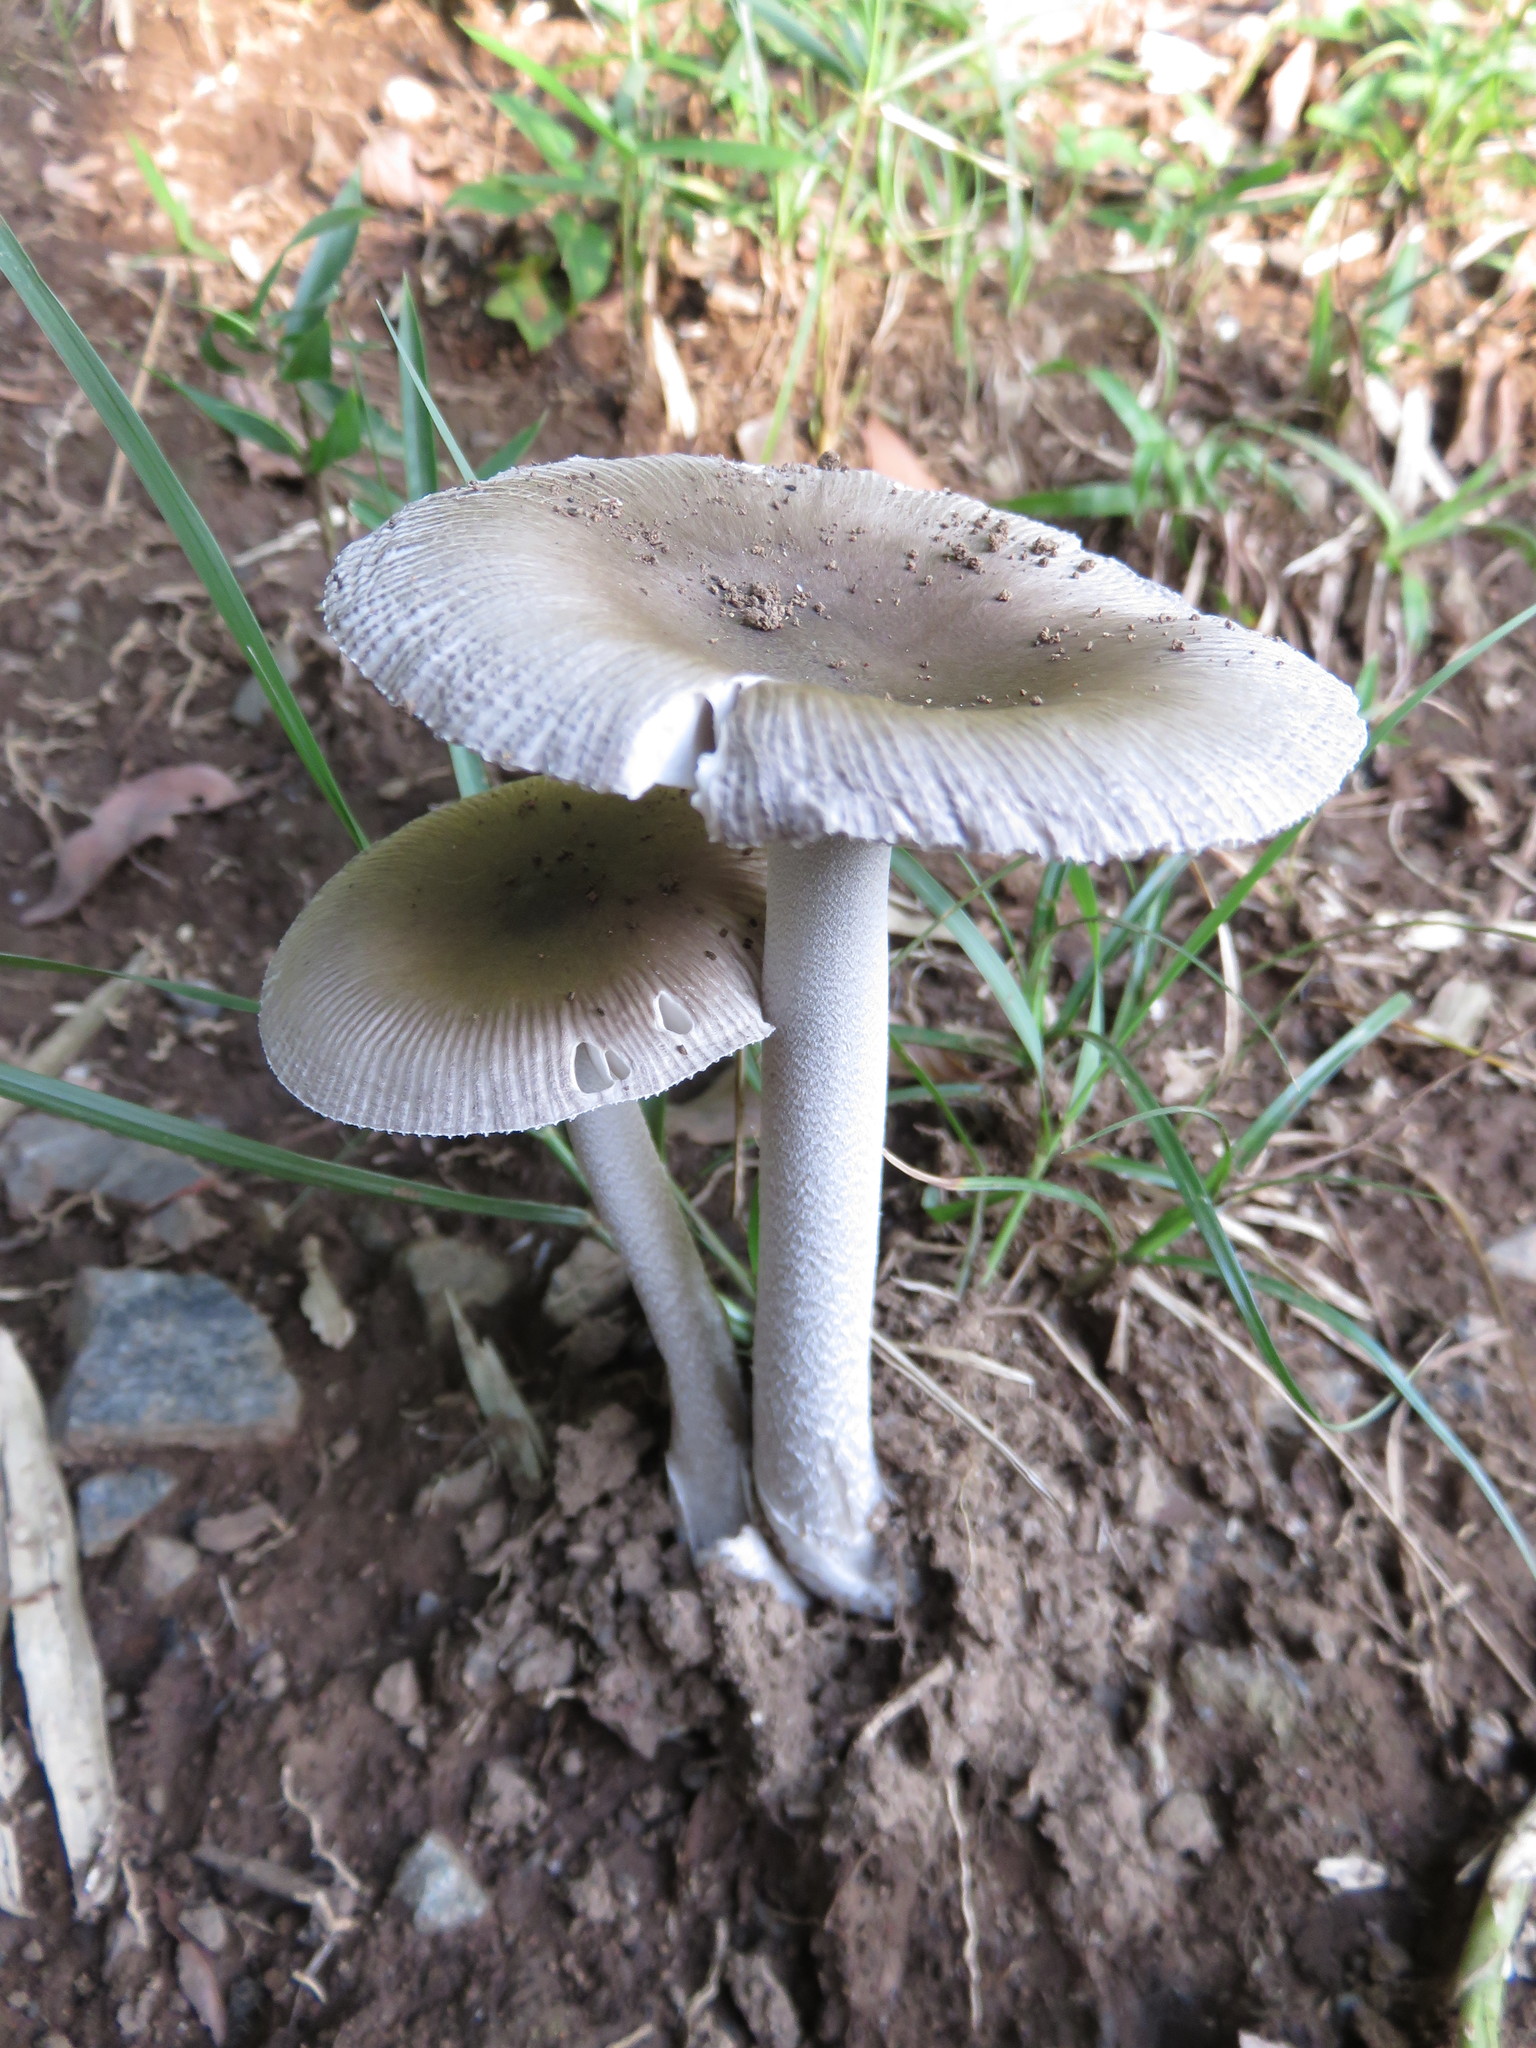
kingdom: Fungi
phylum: Basidiomycota
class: Agaricomycetes
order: Agaricales
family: Amanitaceae
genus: Amanita
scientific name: Amanita vaginata
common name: Grisette
